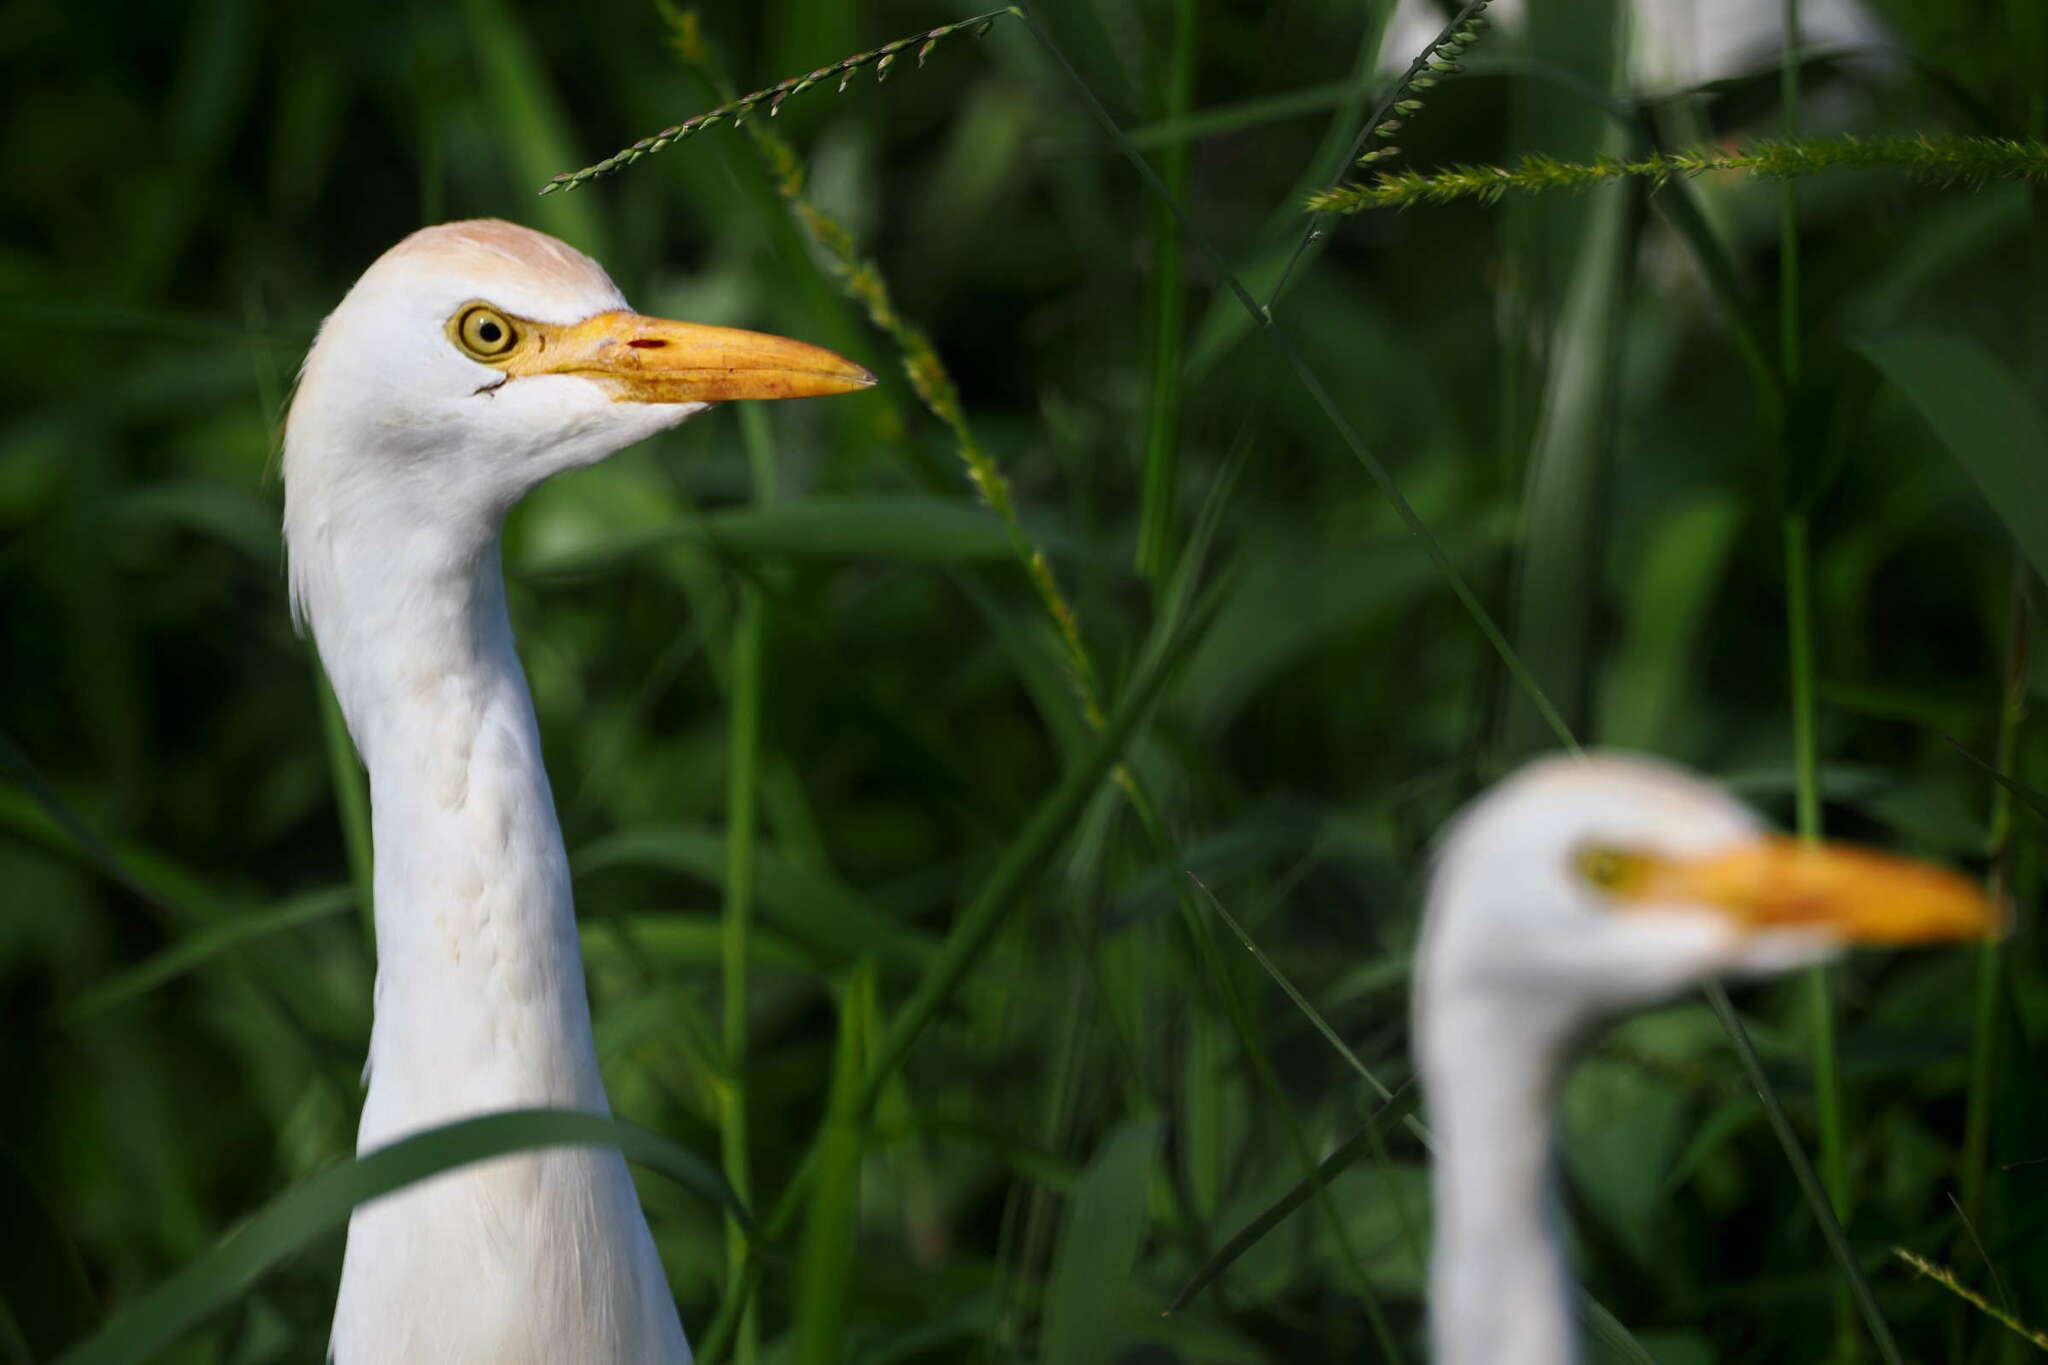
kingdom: Animalia
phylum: Chordata
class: Aves
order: Pelecaniformes
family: Ardeidae
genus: Bubulcus
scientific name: Bubulcus ibis
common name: Cattle egret
